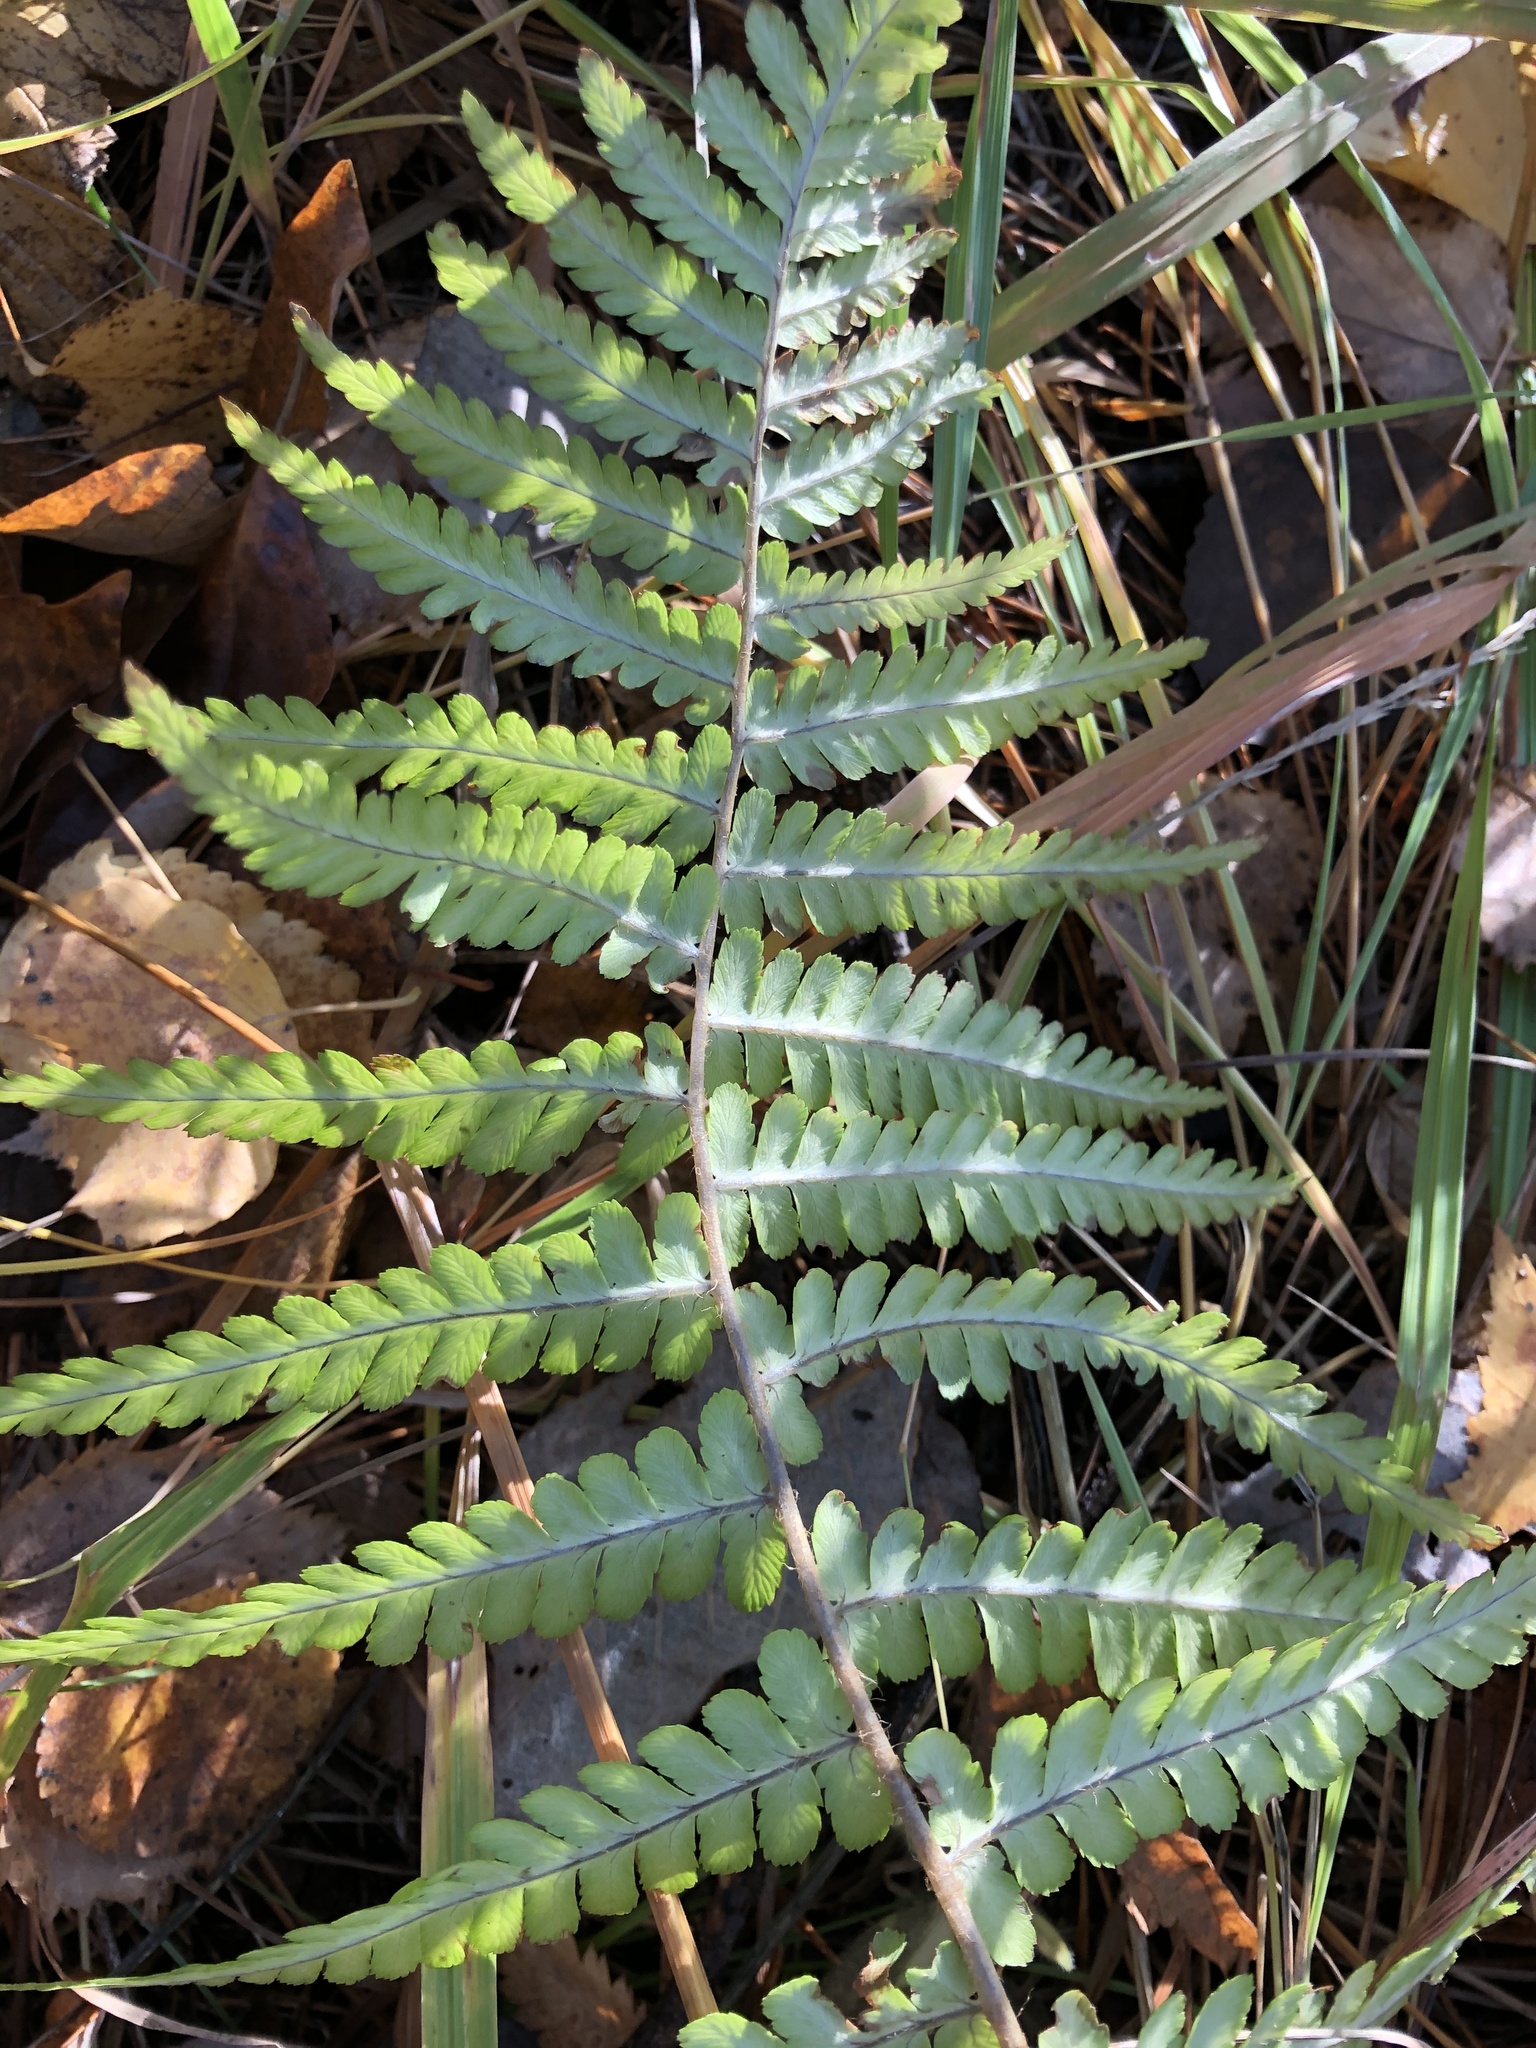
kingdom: Plantae
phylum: Tracheophyta
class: Polypodiopsida
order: Polypodiales
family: Dryopteridaceae
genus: Dryopteris
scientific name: Dryopteris filix-mas
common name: Male fern
